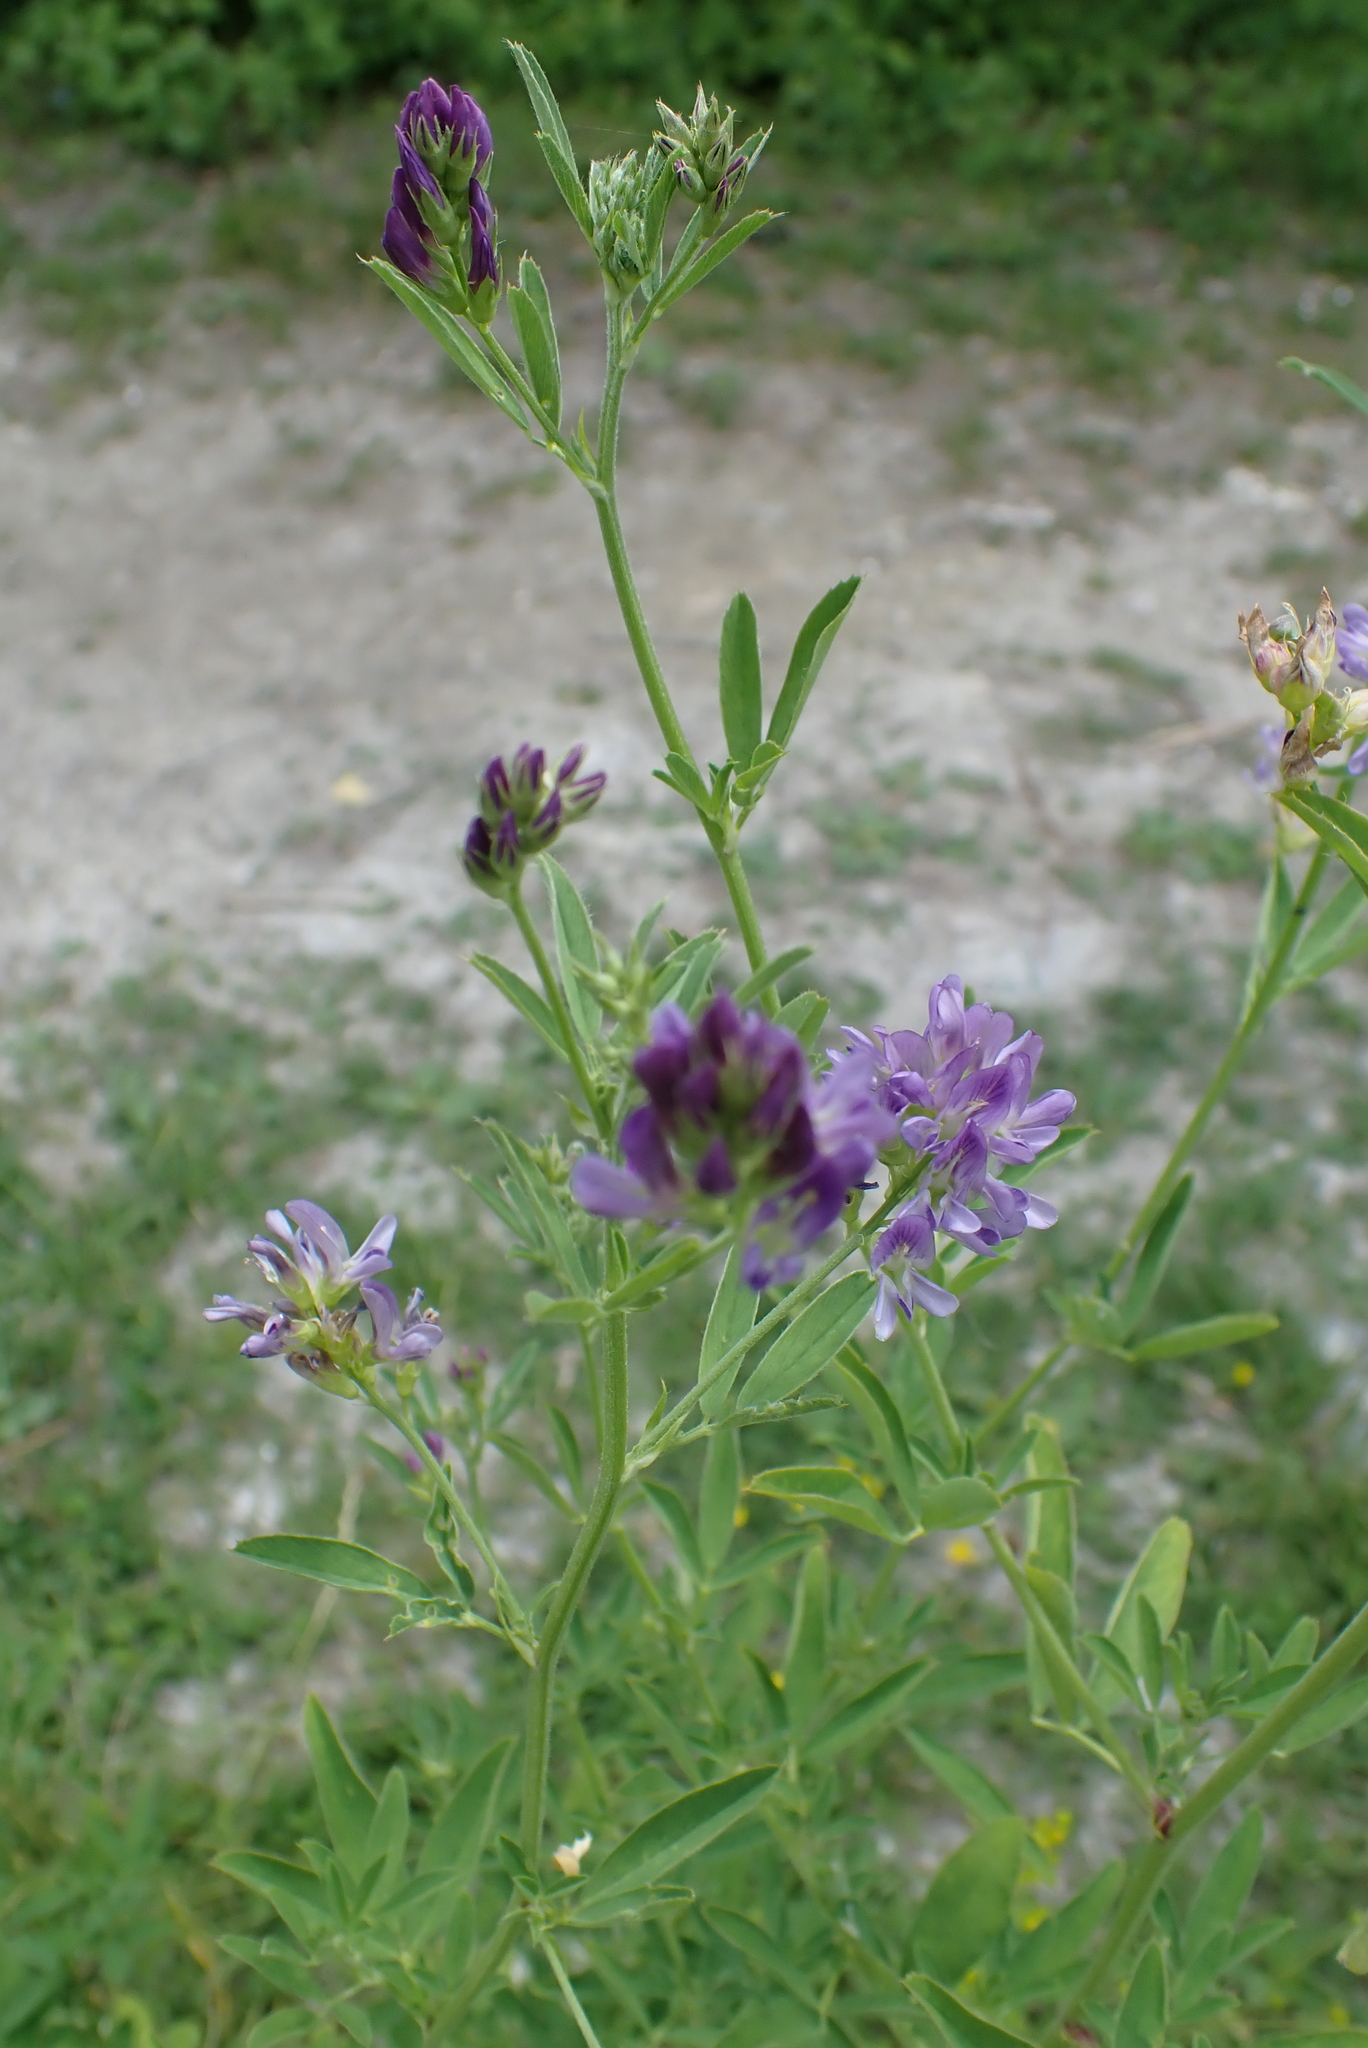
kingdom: Plantae
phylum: Tracheophyta
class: Magnoliopsida
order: Fabales
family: Fabaceae
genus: Medicago
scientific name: Medicago sativa
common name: Alfalfa
